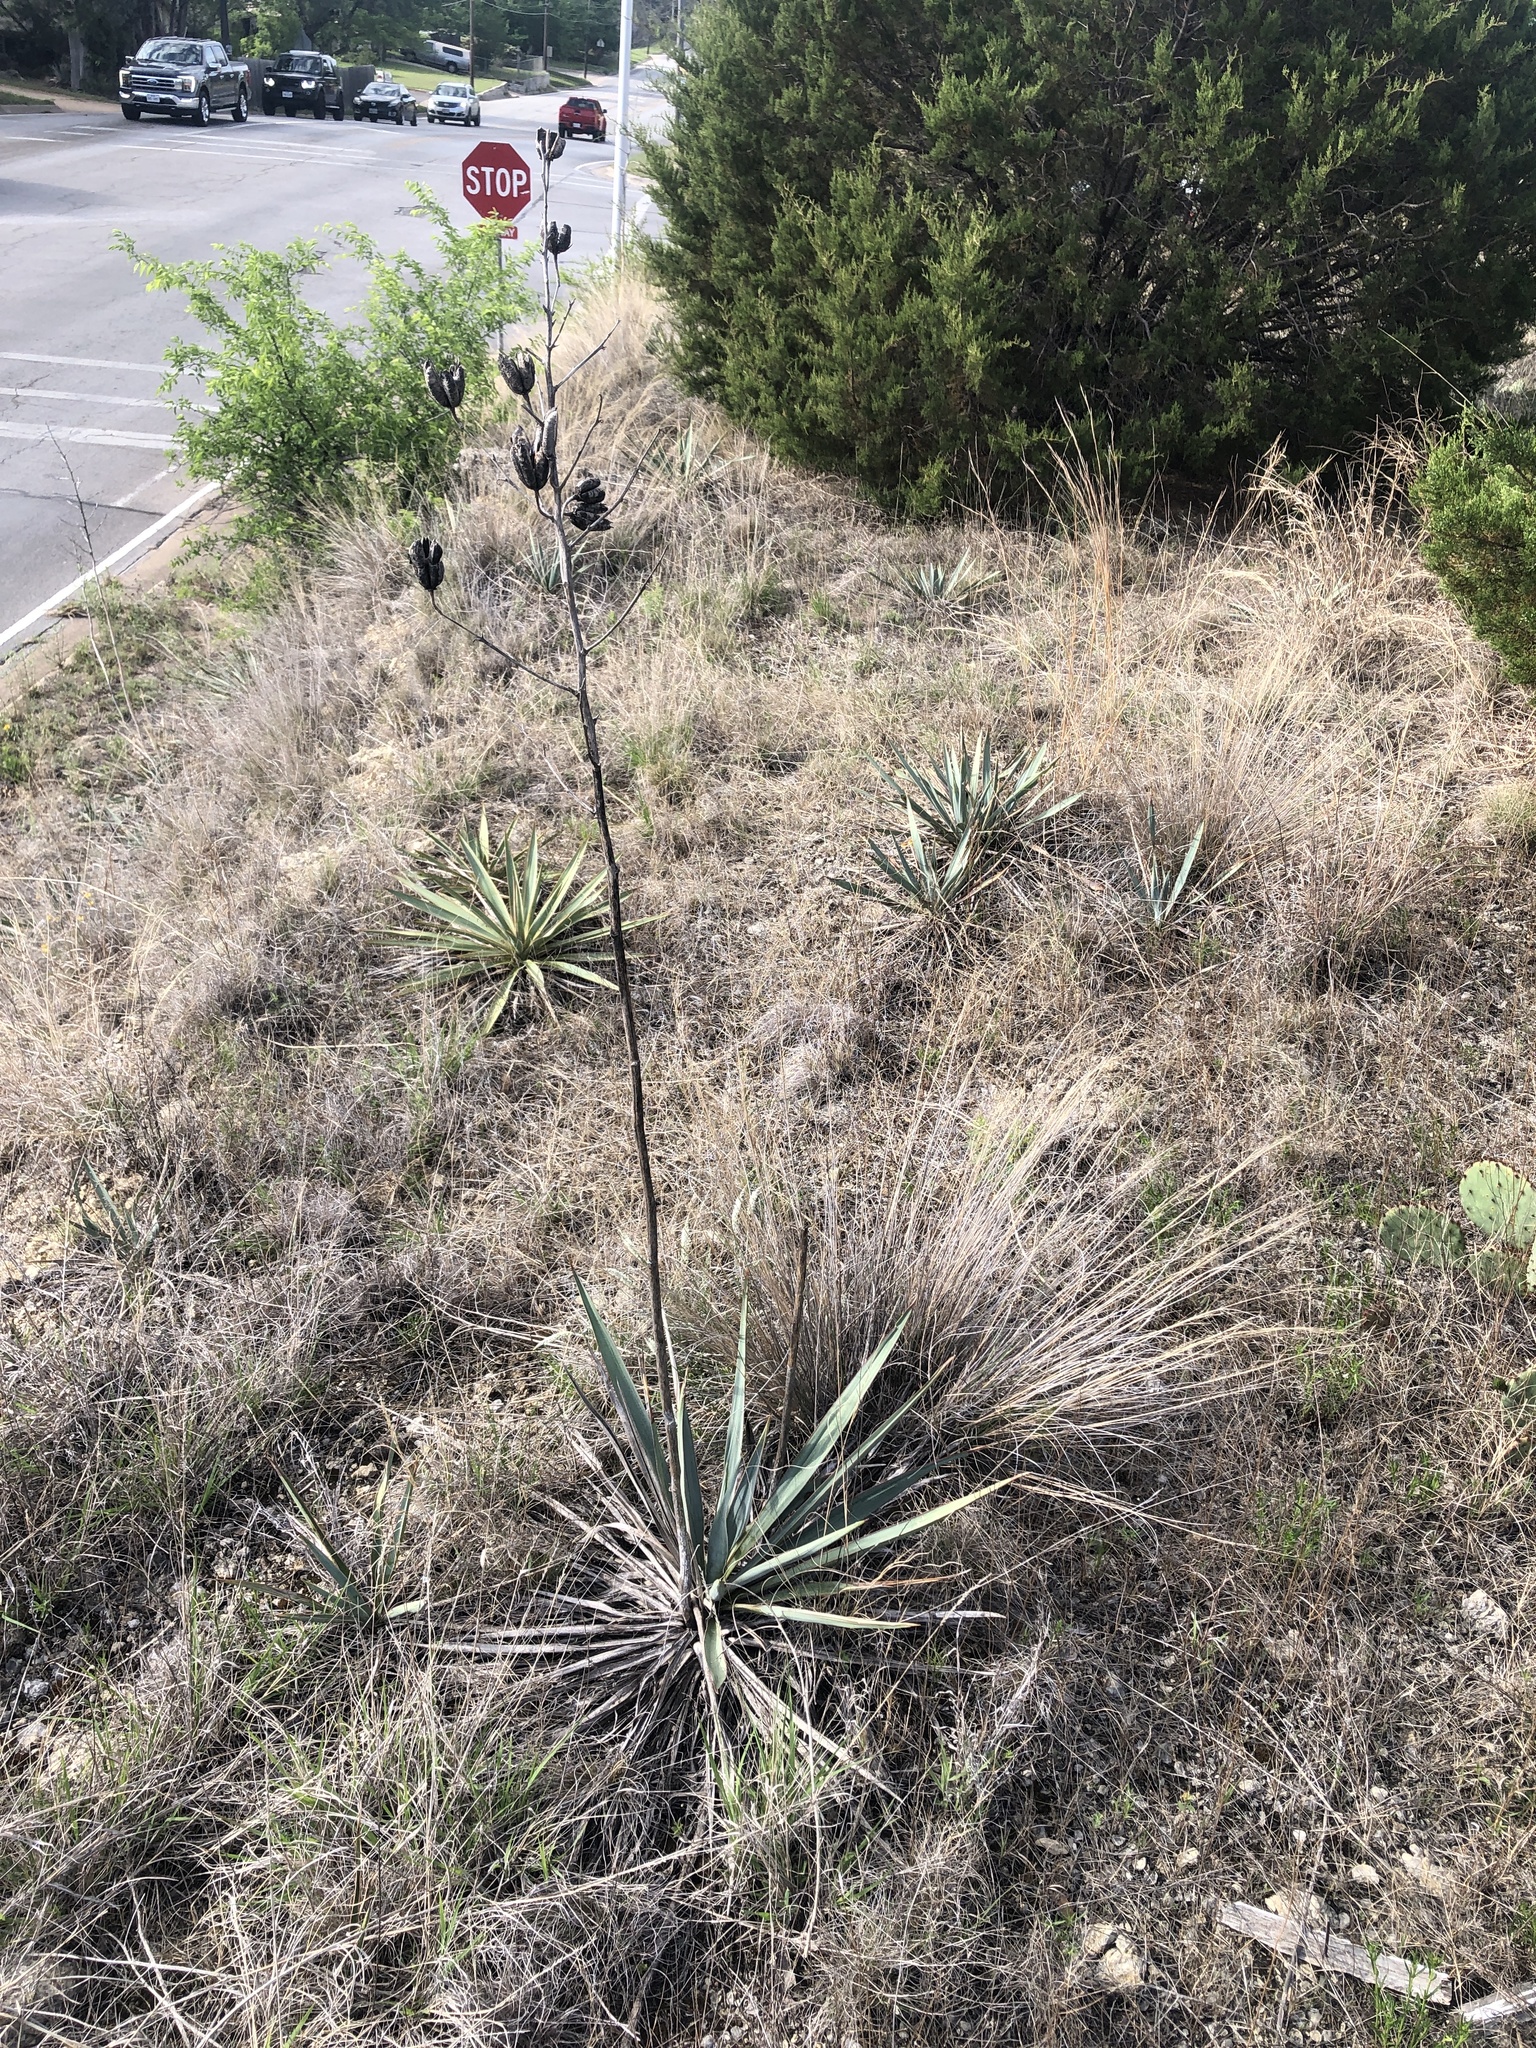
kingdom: Plantae
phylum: Tracheophyta
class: Liliopsida
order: Asparagales
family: Asparagaceae
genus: Yucca
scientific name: Yucca pallida
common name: Pale leaf yucca
